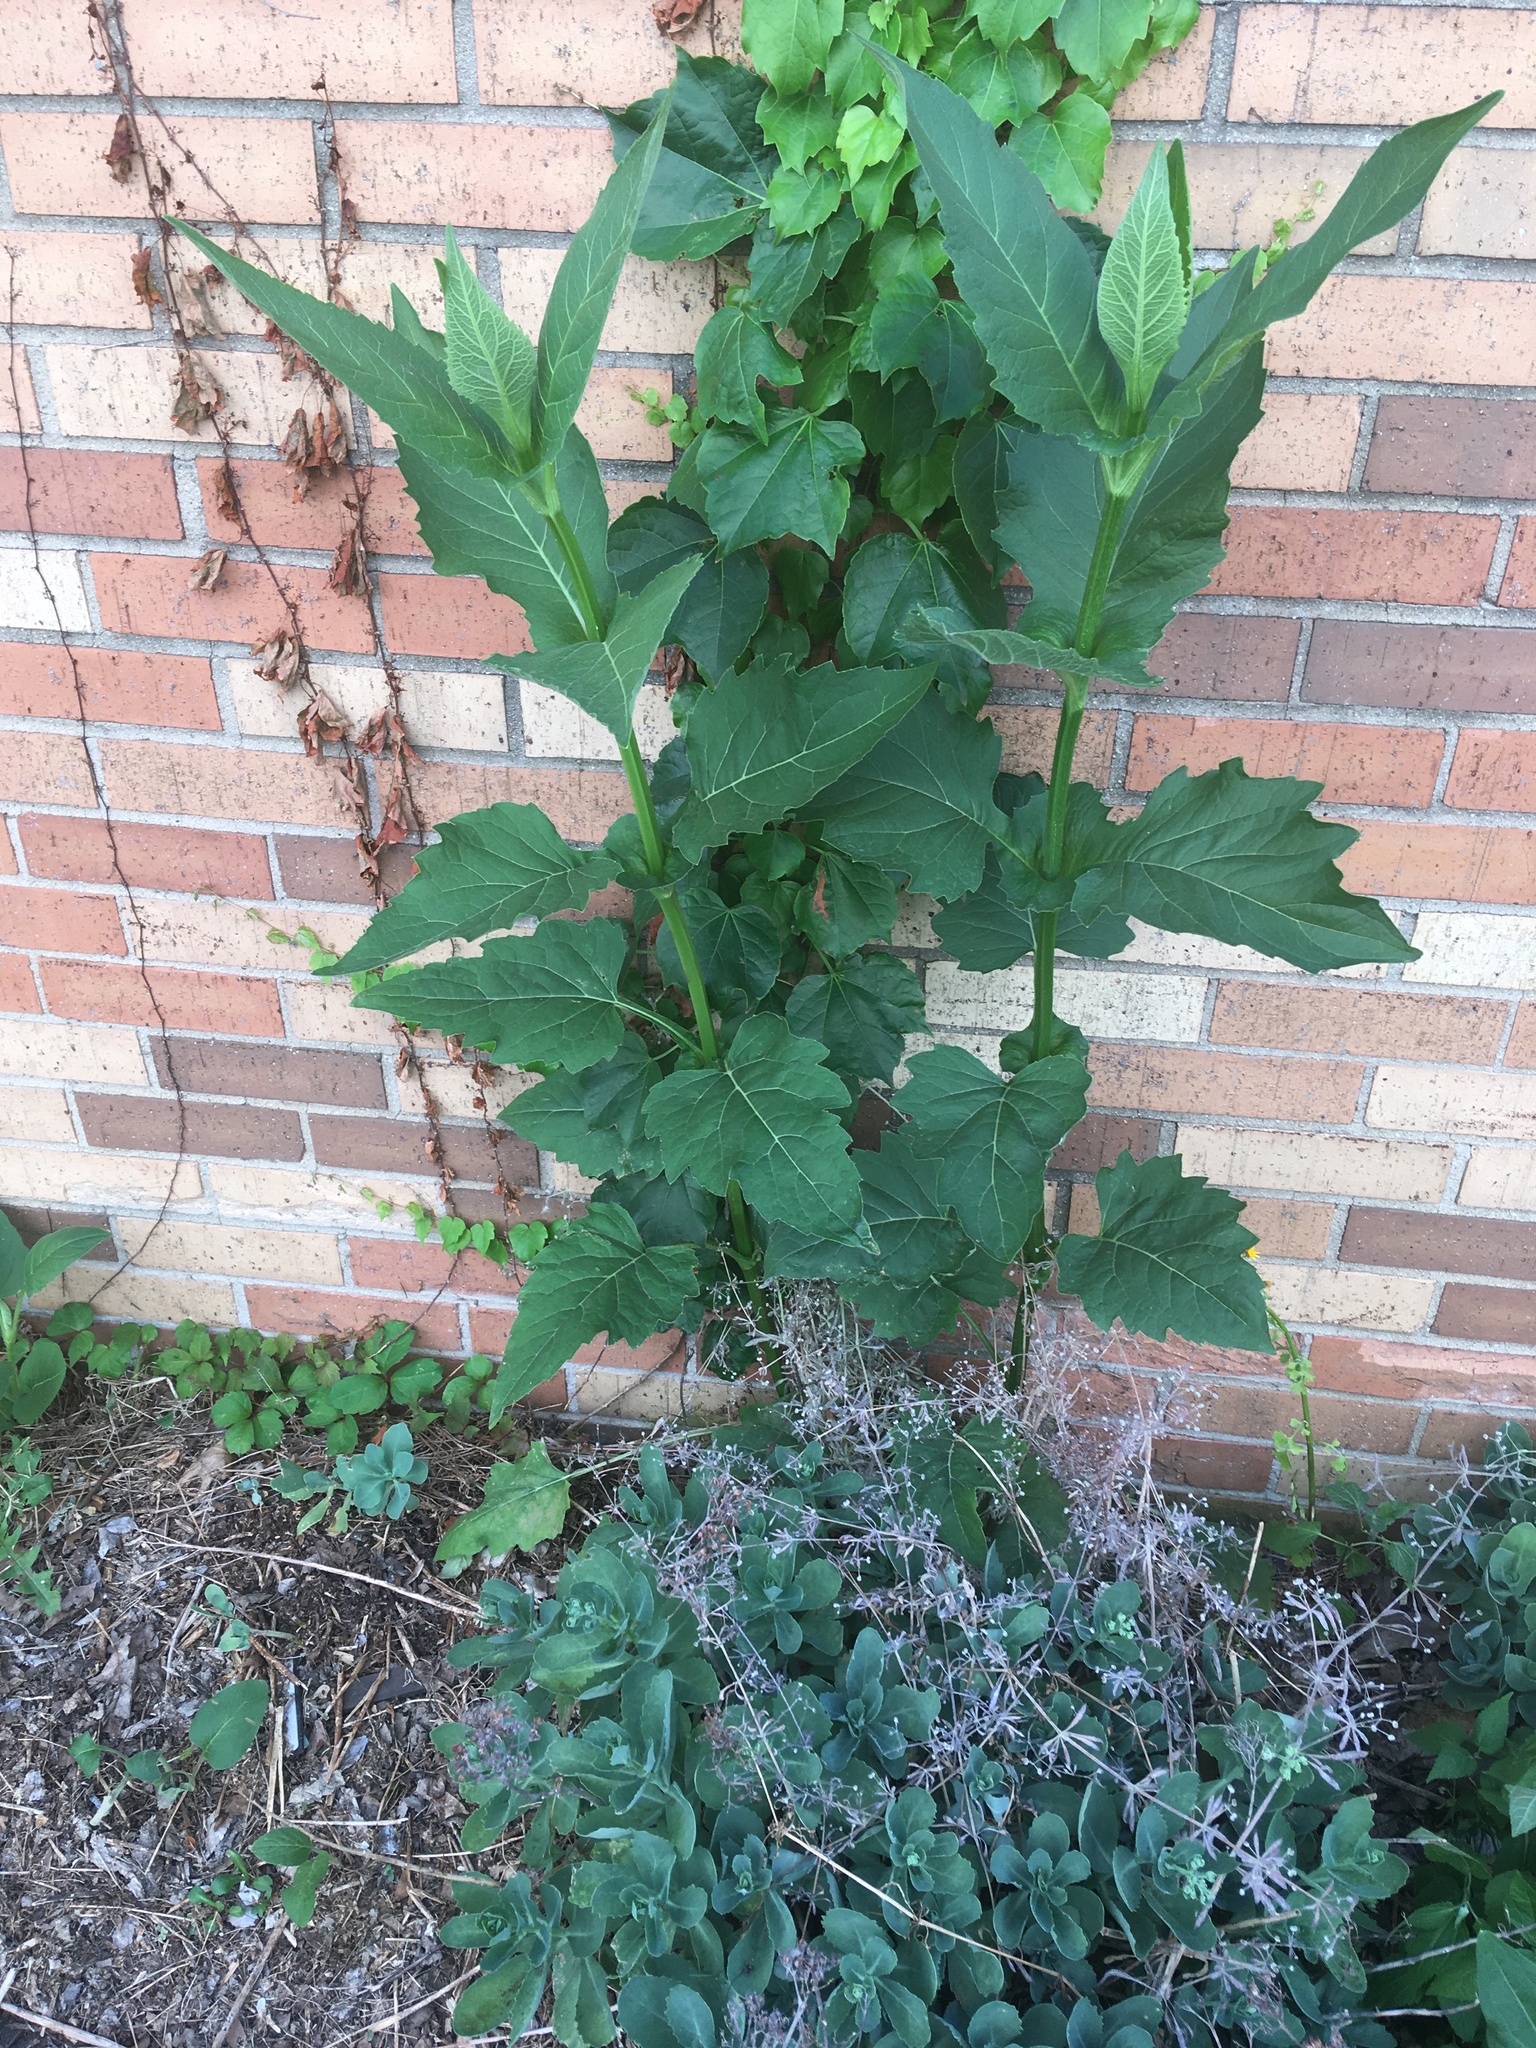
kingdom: Plantae
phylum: Tracheophyta
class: Magnoliopsida
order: Asterales
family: Asteraceae
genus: Silphium
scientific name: Silphium perfoliatum
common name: Cup-plant
